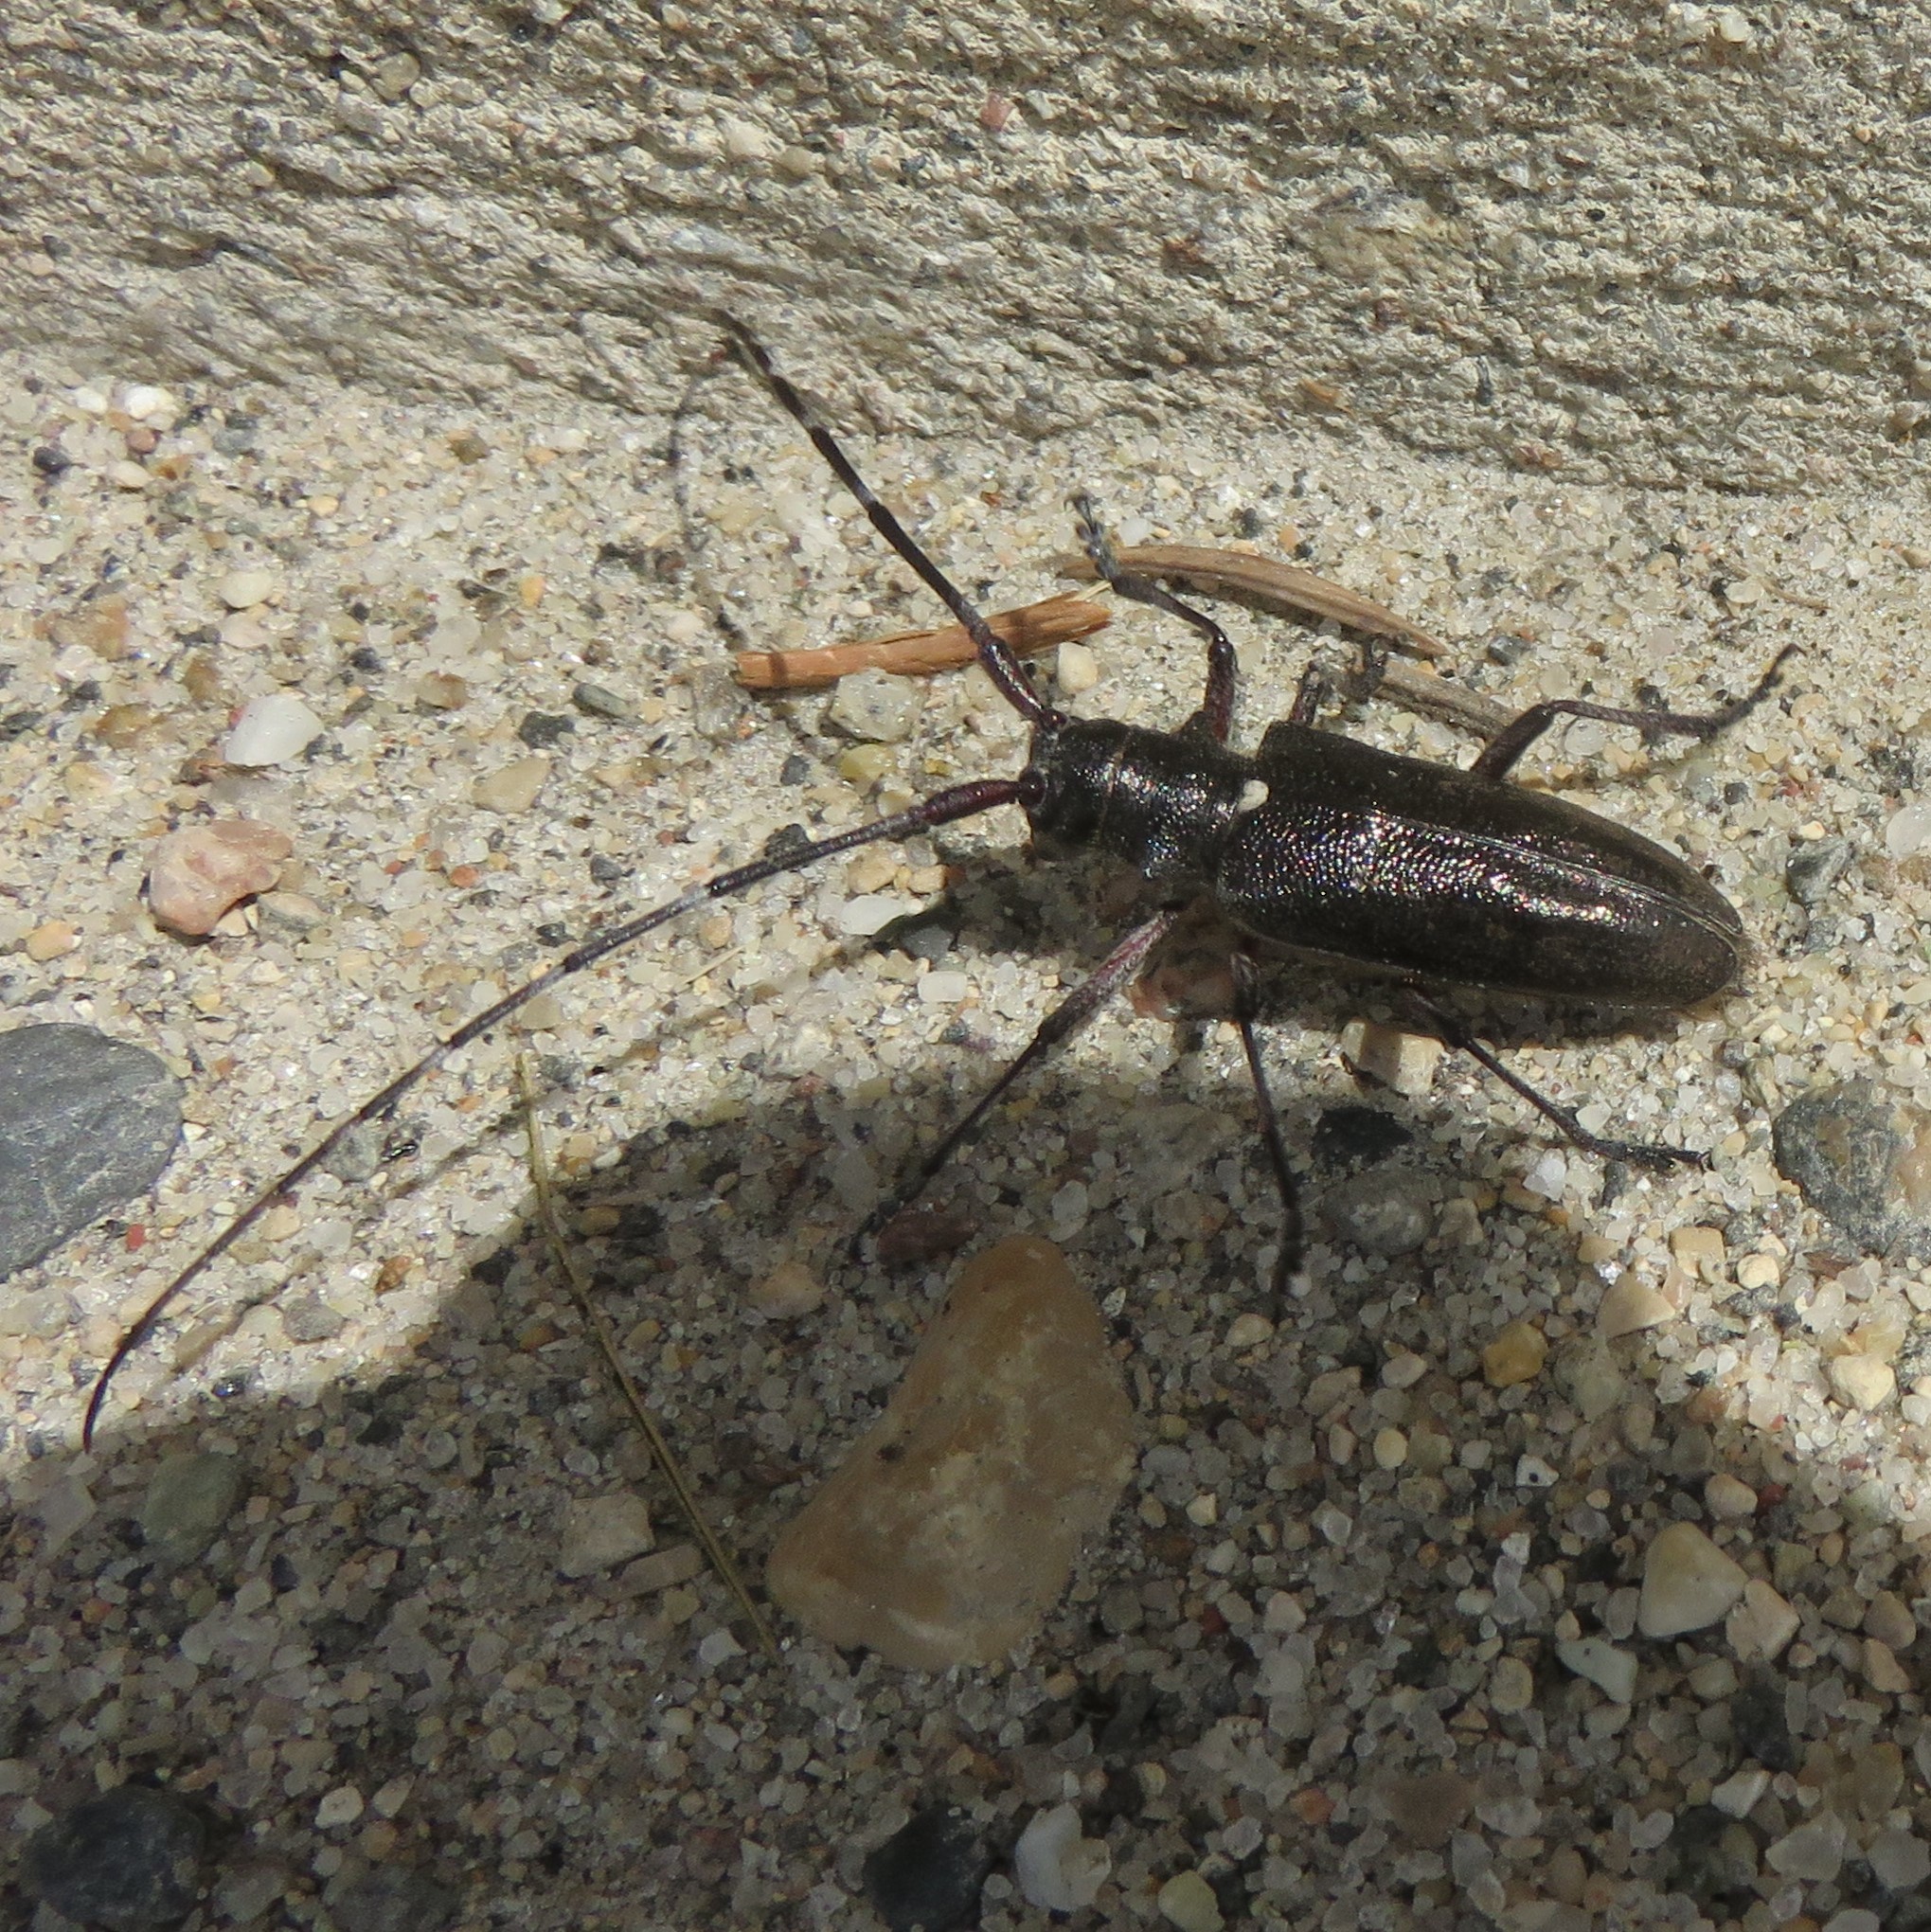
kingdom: Animalia
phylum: Arthropoda
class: Insecta
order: Coleoptera
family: Cerambycidae
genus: Monochamus
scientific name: Monochamus scutellatus
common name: White-spotted sawyer beetle
